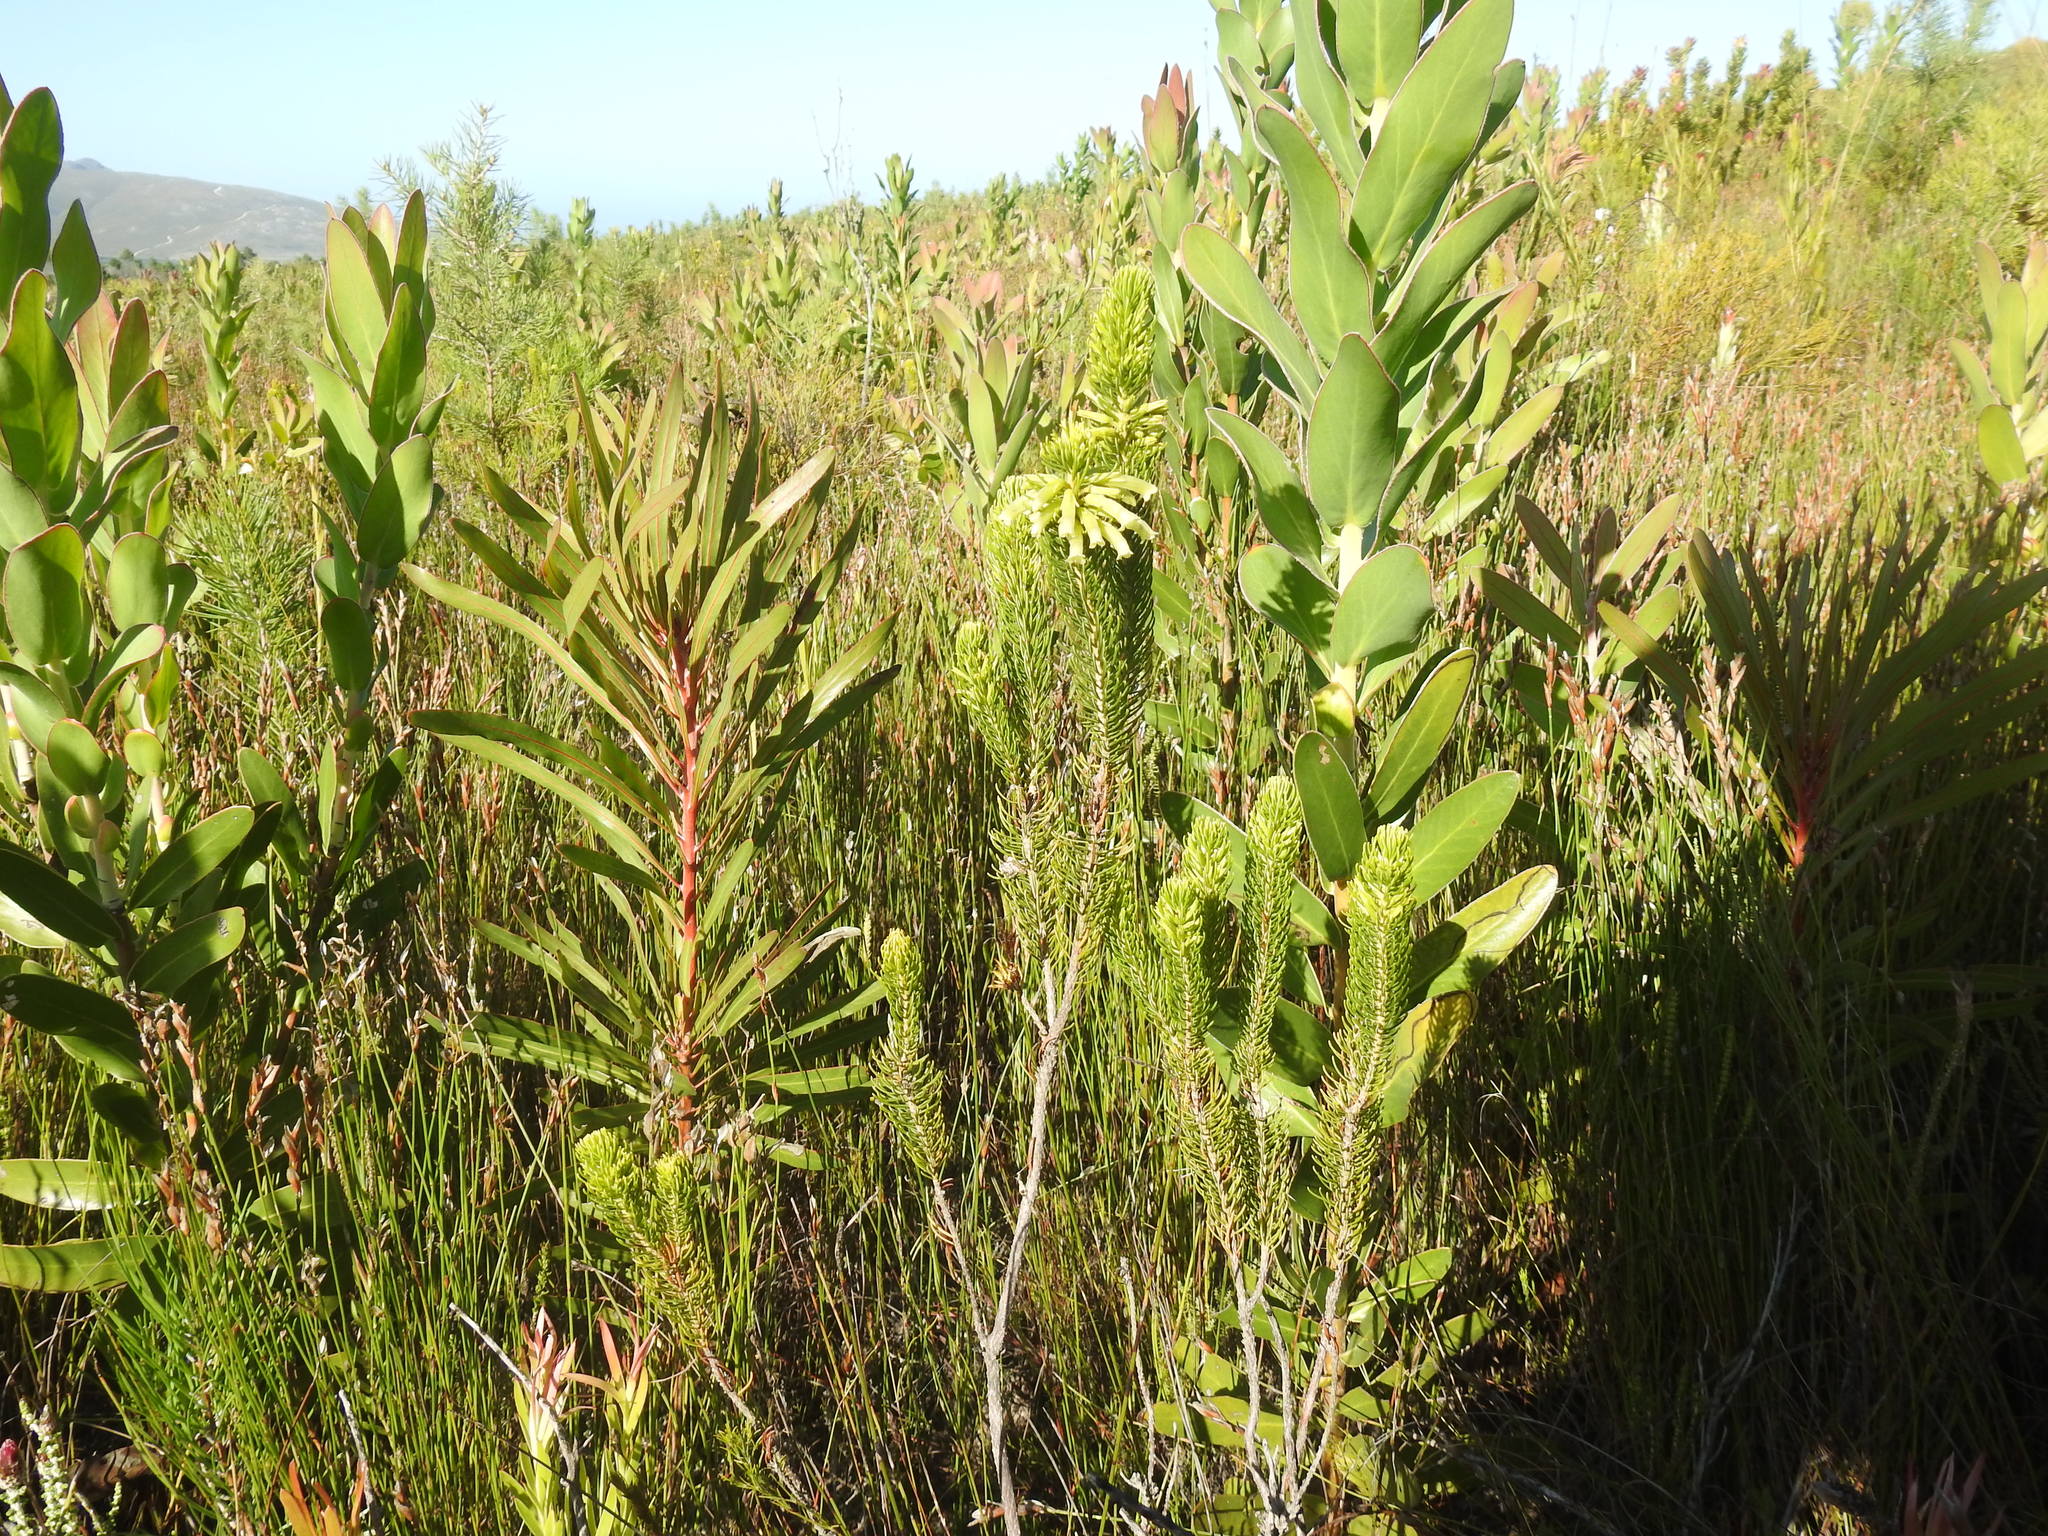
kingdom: Plantae
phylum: Tracheophyta
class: Magnoliopsida
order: Ericales
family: Ericaceae
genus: Erica
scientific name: Erica viscaria
